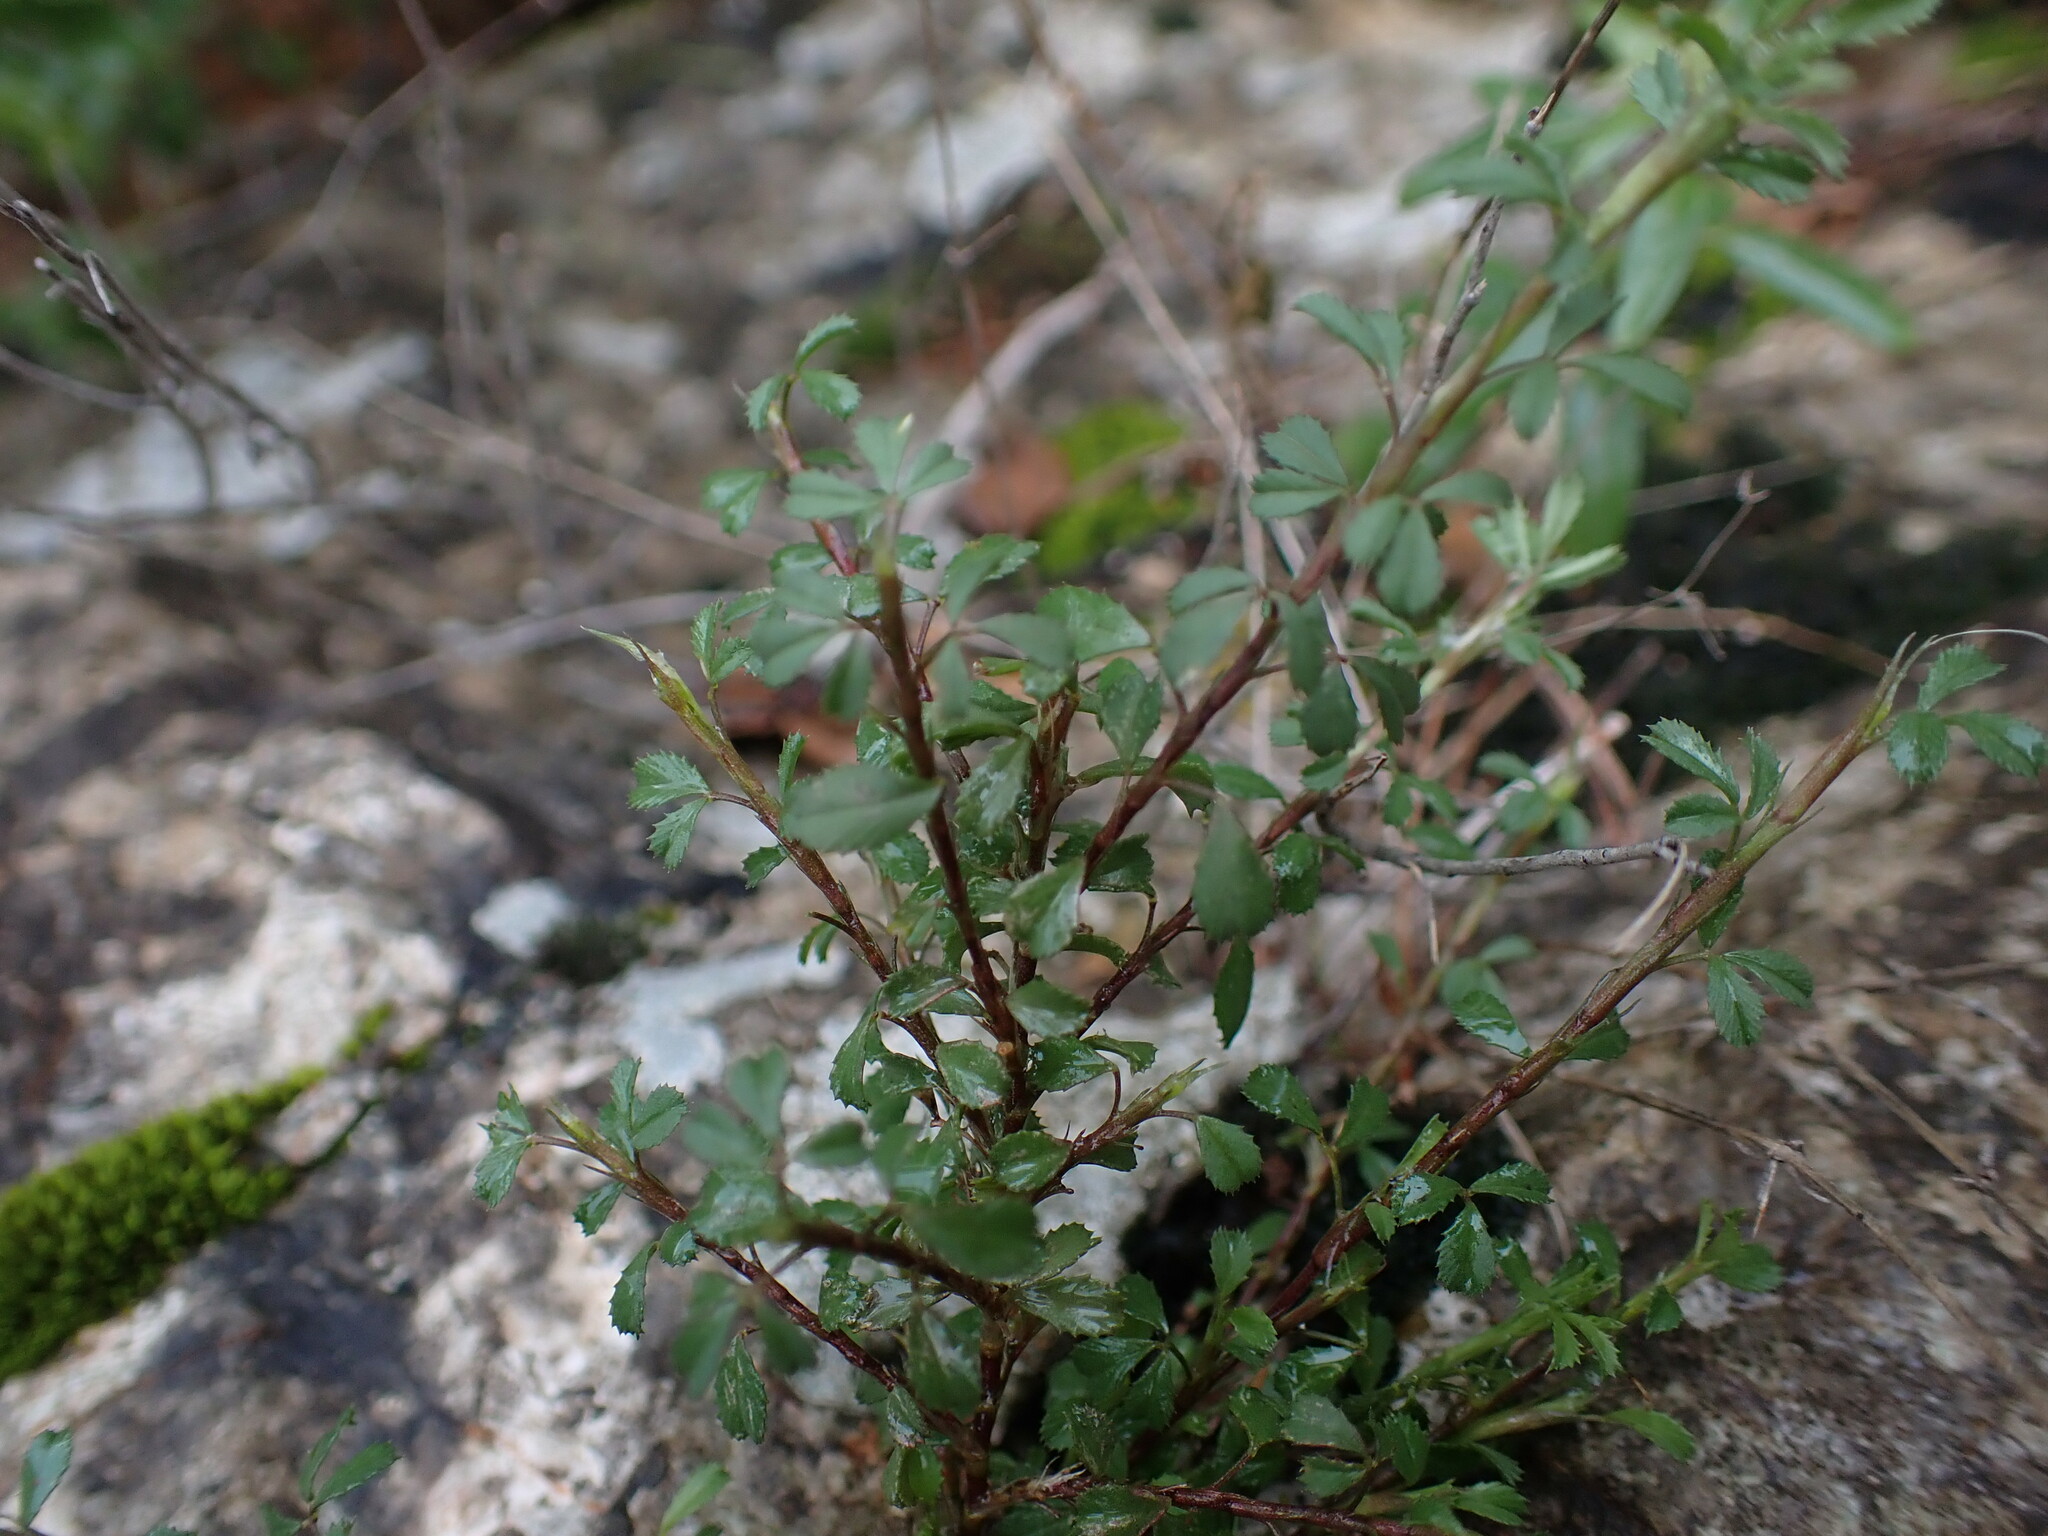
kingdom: Plantae
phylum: Tracheophyta
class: Magnoliopsida
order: Fabales
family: Fabaceae
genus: Ononis
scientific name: Ononis minutissima
